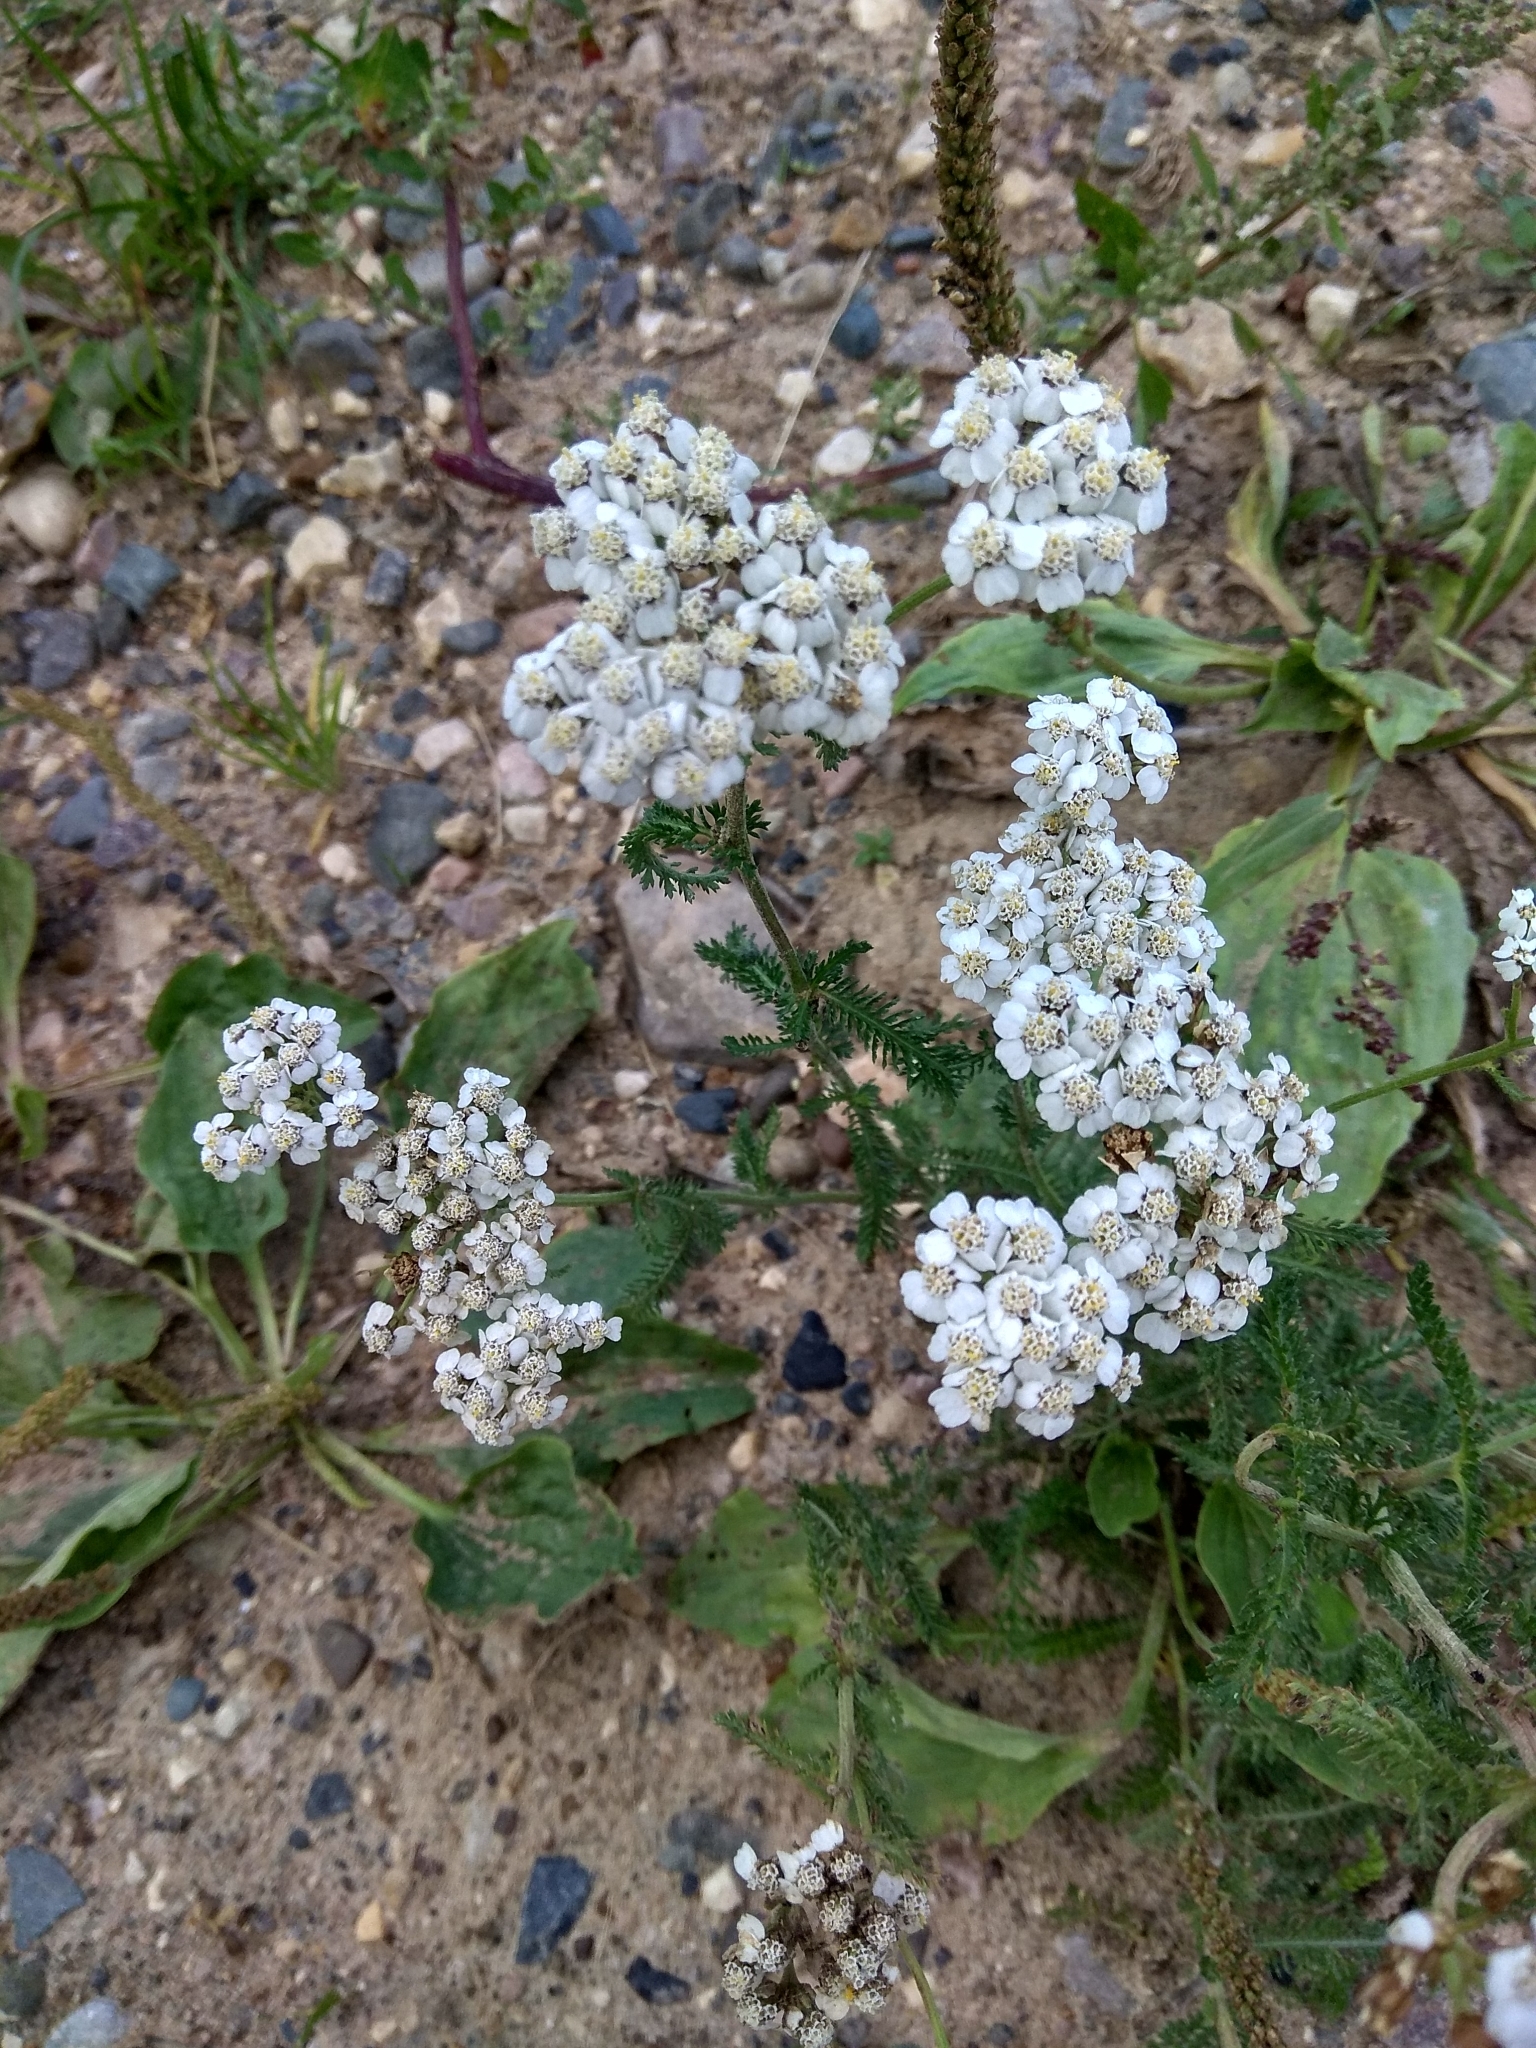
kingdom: Plantae
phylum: Tracheophyta
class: Magnoliopsida
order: Asterales
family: Asteraceae
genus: Achillea
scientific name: Achillea millefolium
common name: Yarrow
